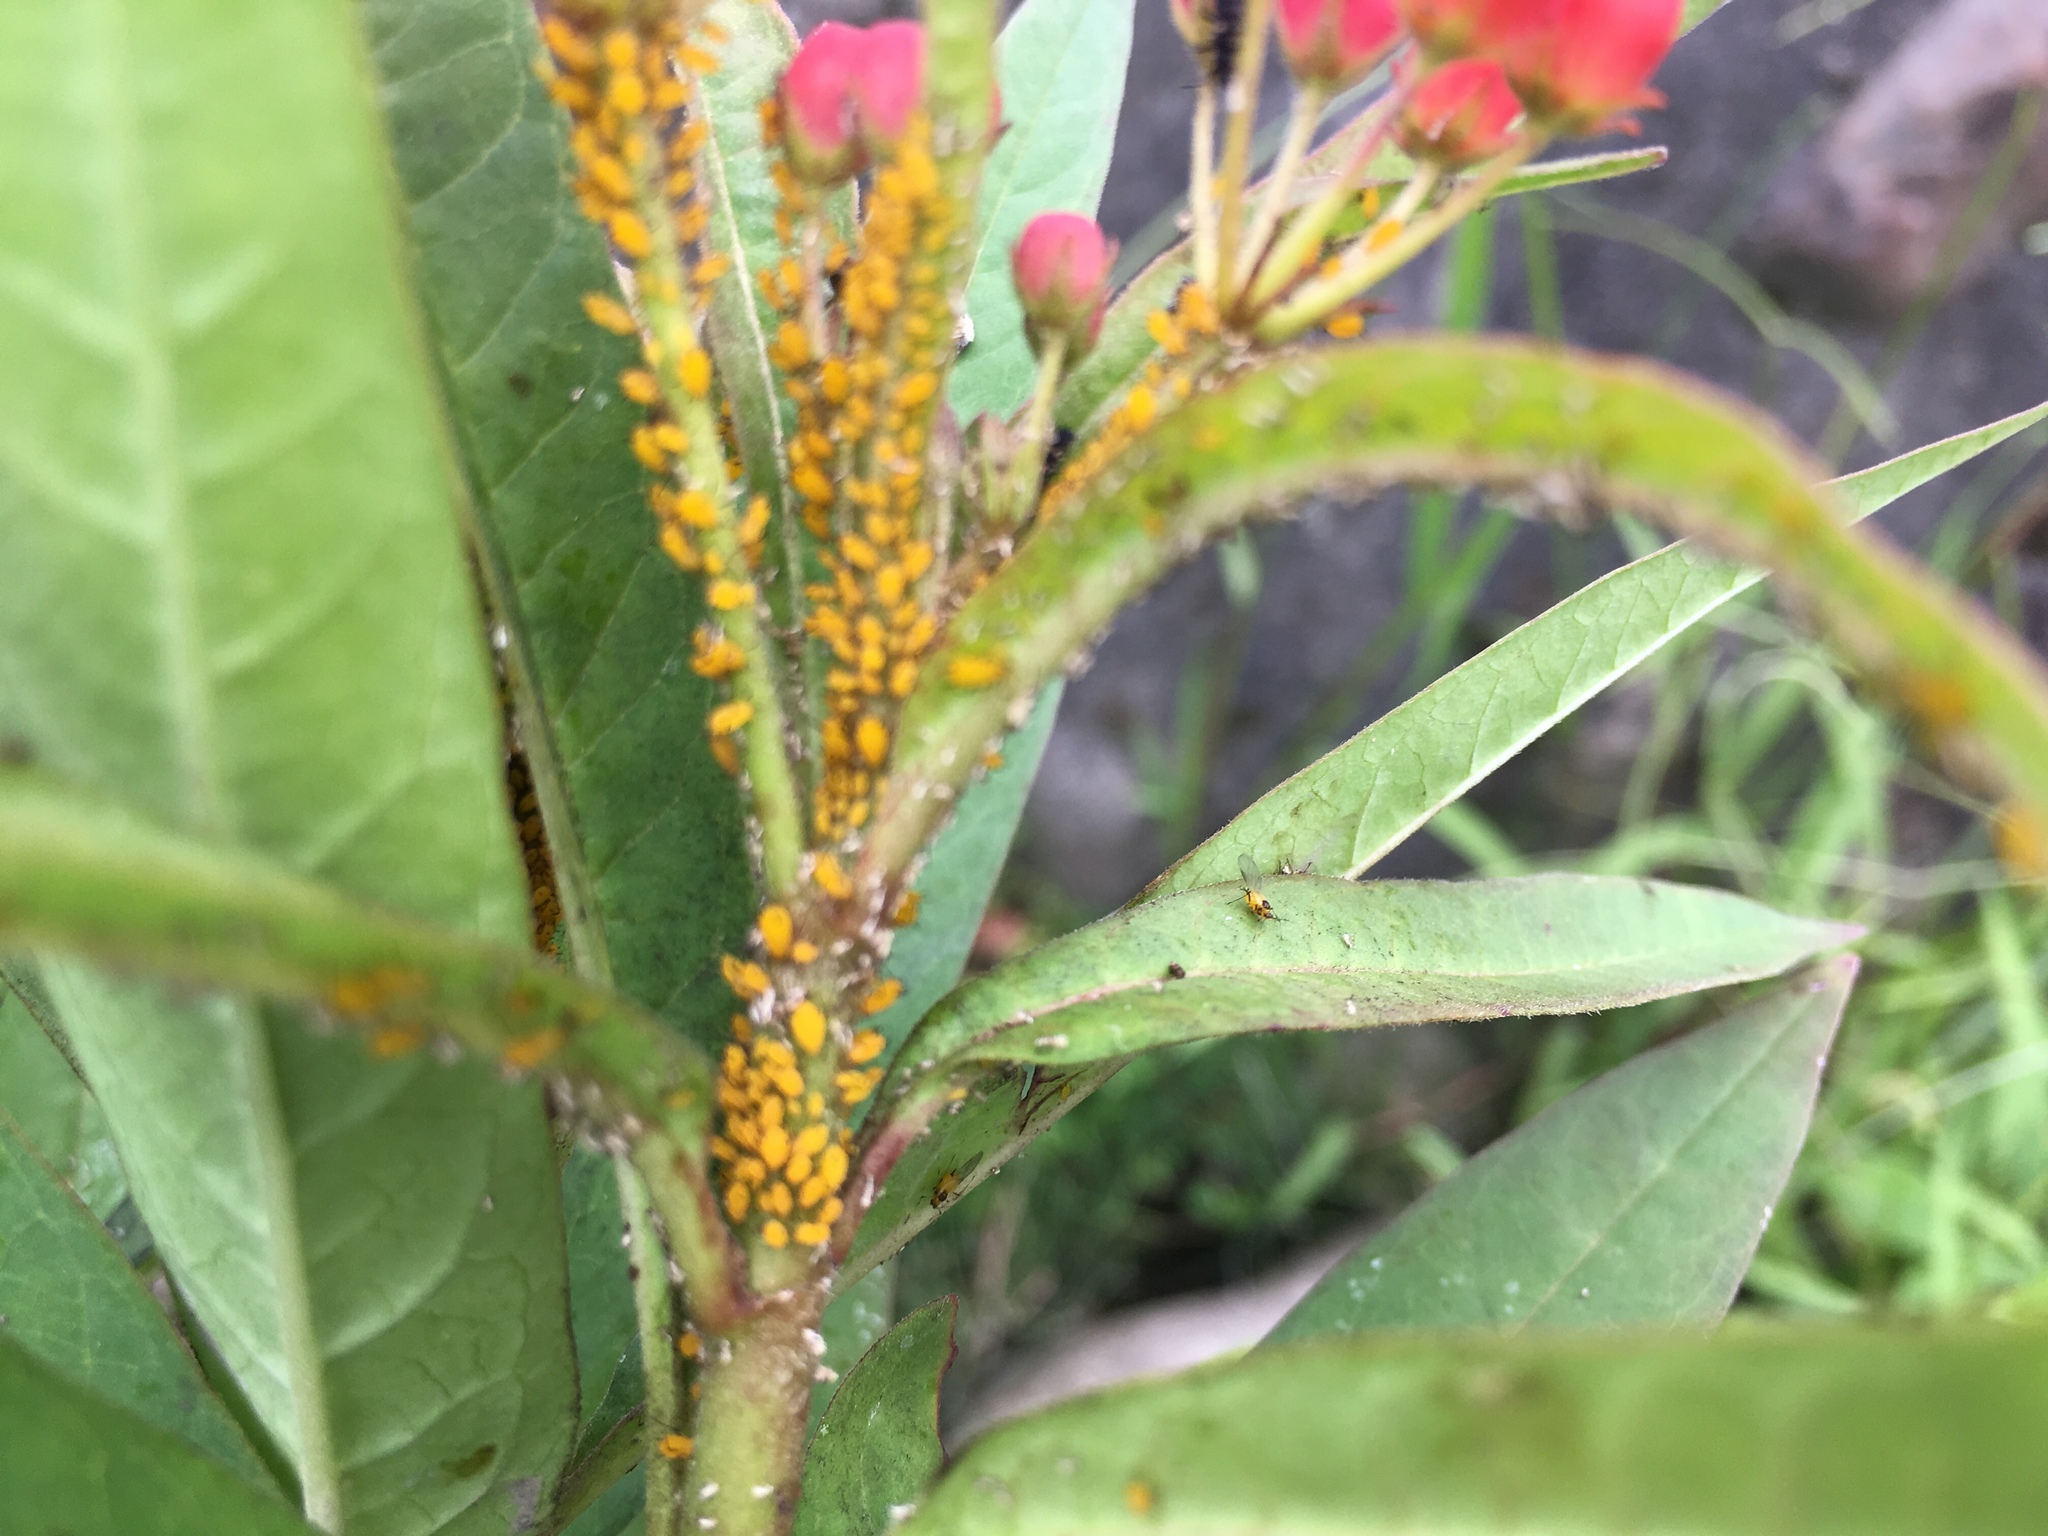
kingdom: Animalia
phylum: Arthropoda
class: Insecta
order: Hemiptera
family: Aphididae
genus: Aphis
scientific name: Aphis nerii
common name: Oleander aphid
